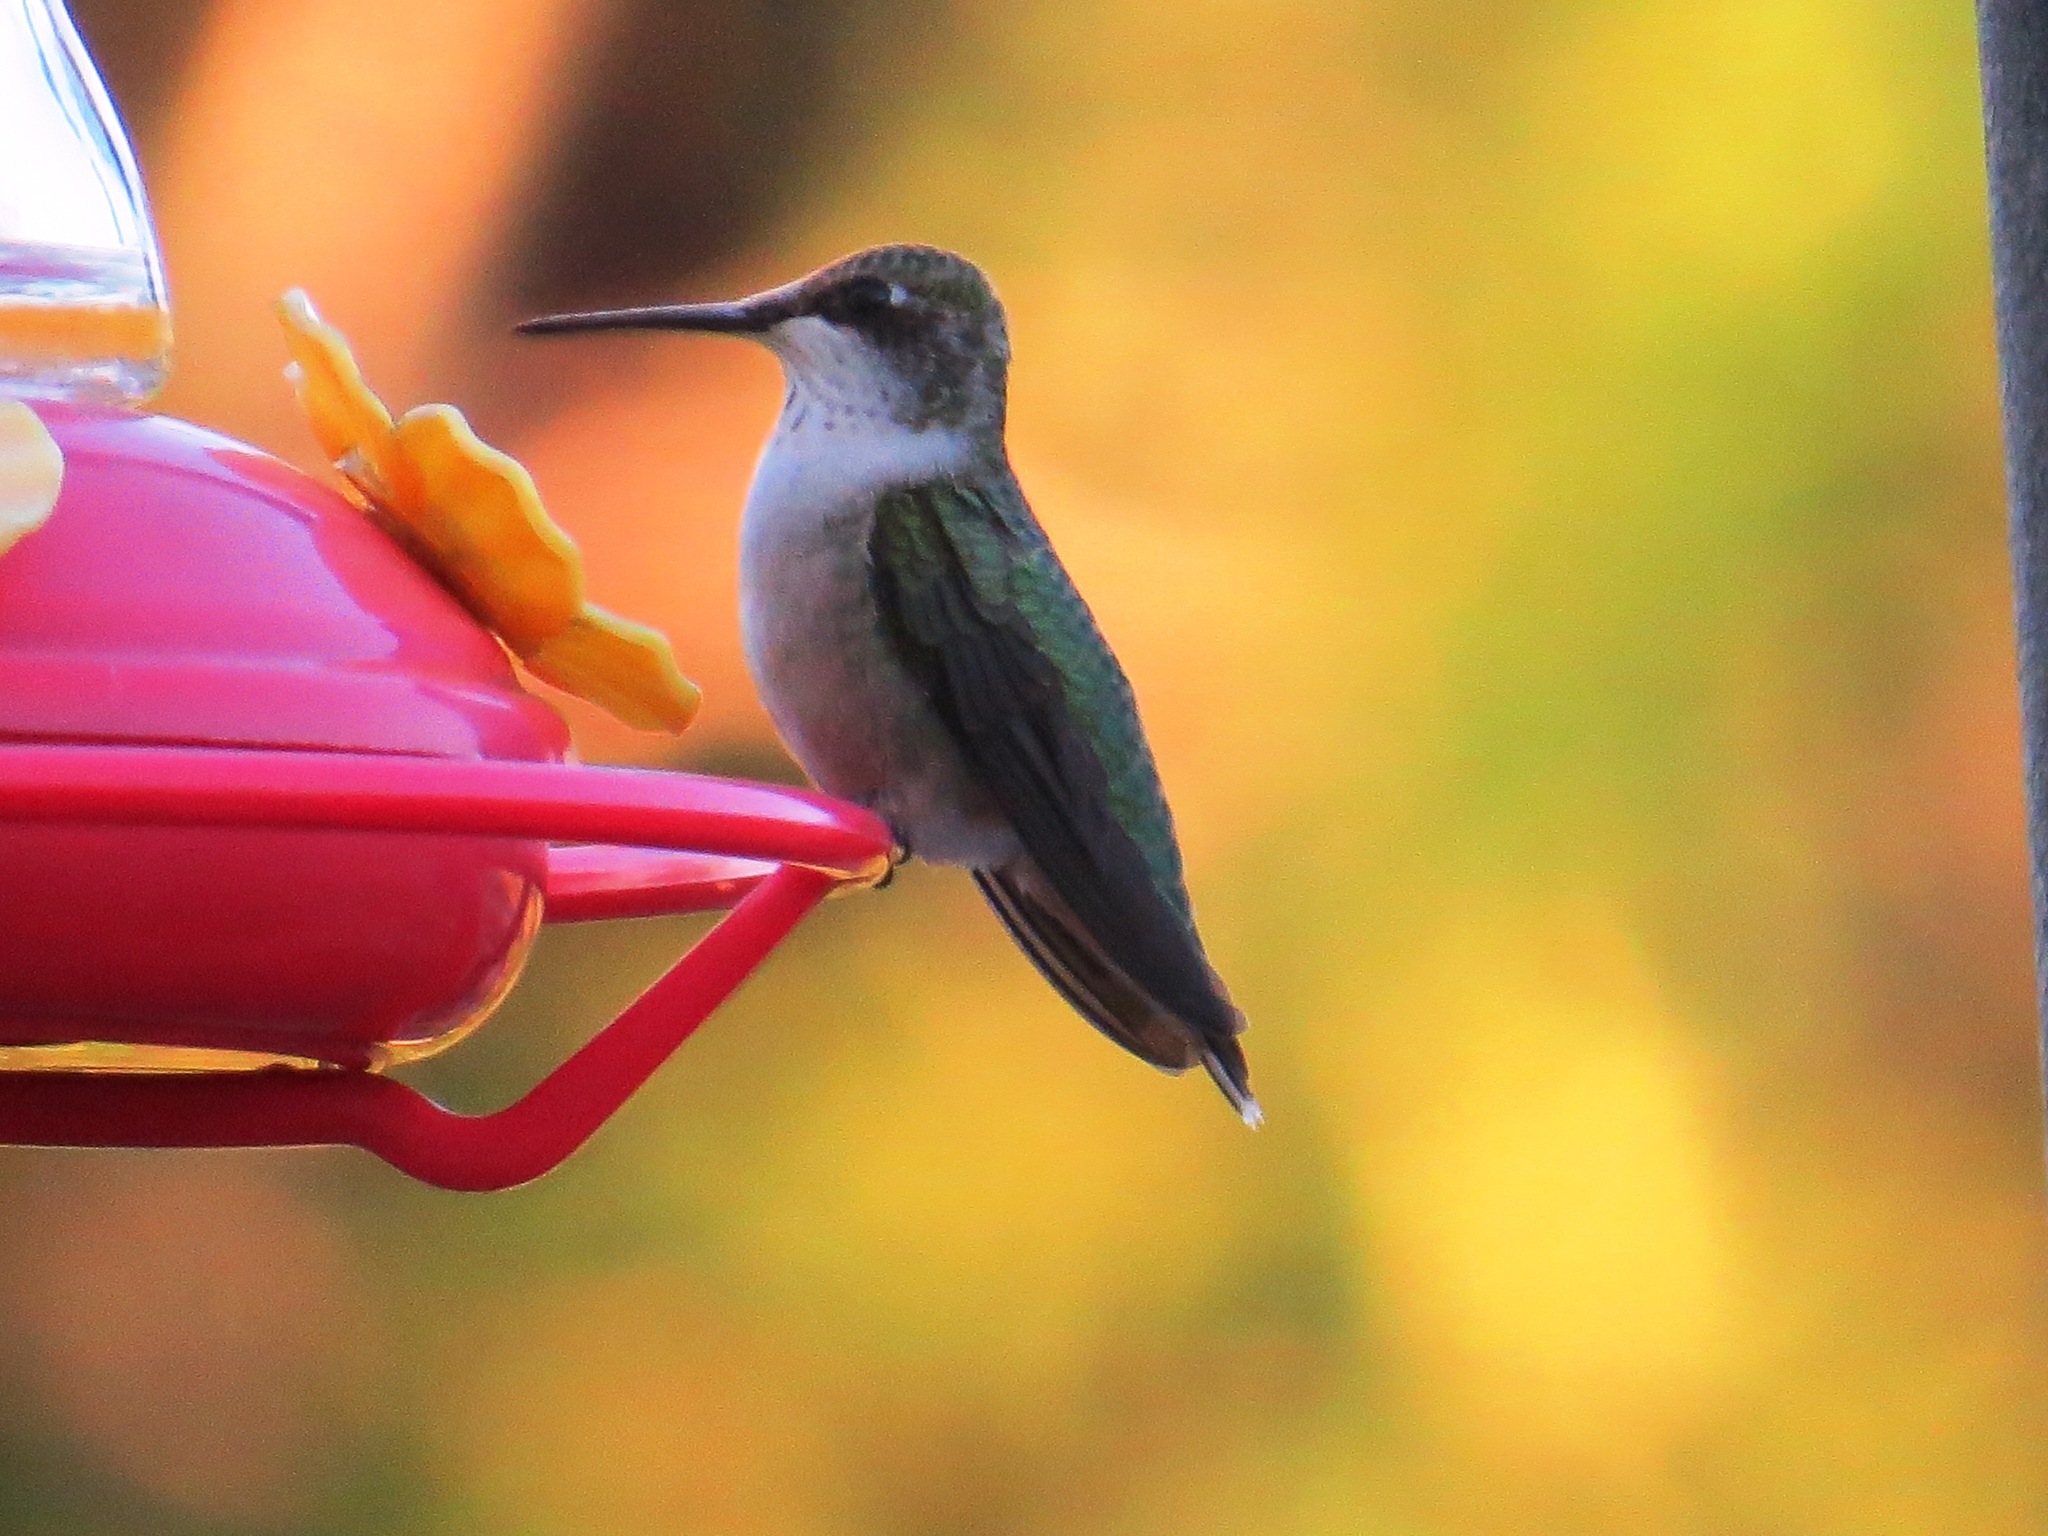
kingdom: Animalia
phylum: Chordata
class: Aves
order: Apodiformes
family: Trochilidae
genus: Archilochus
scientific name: Archilochus colubris
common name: Ruby-throated hummingbird
